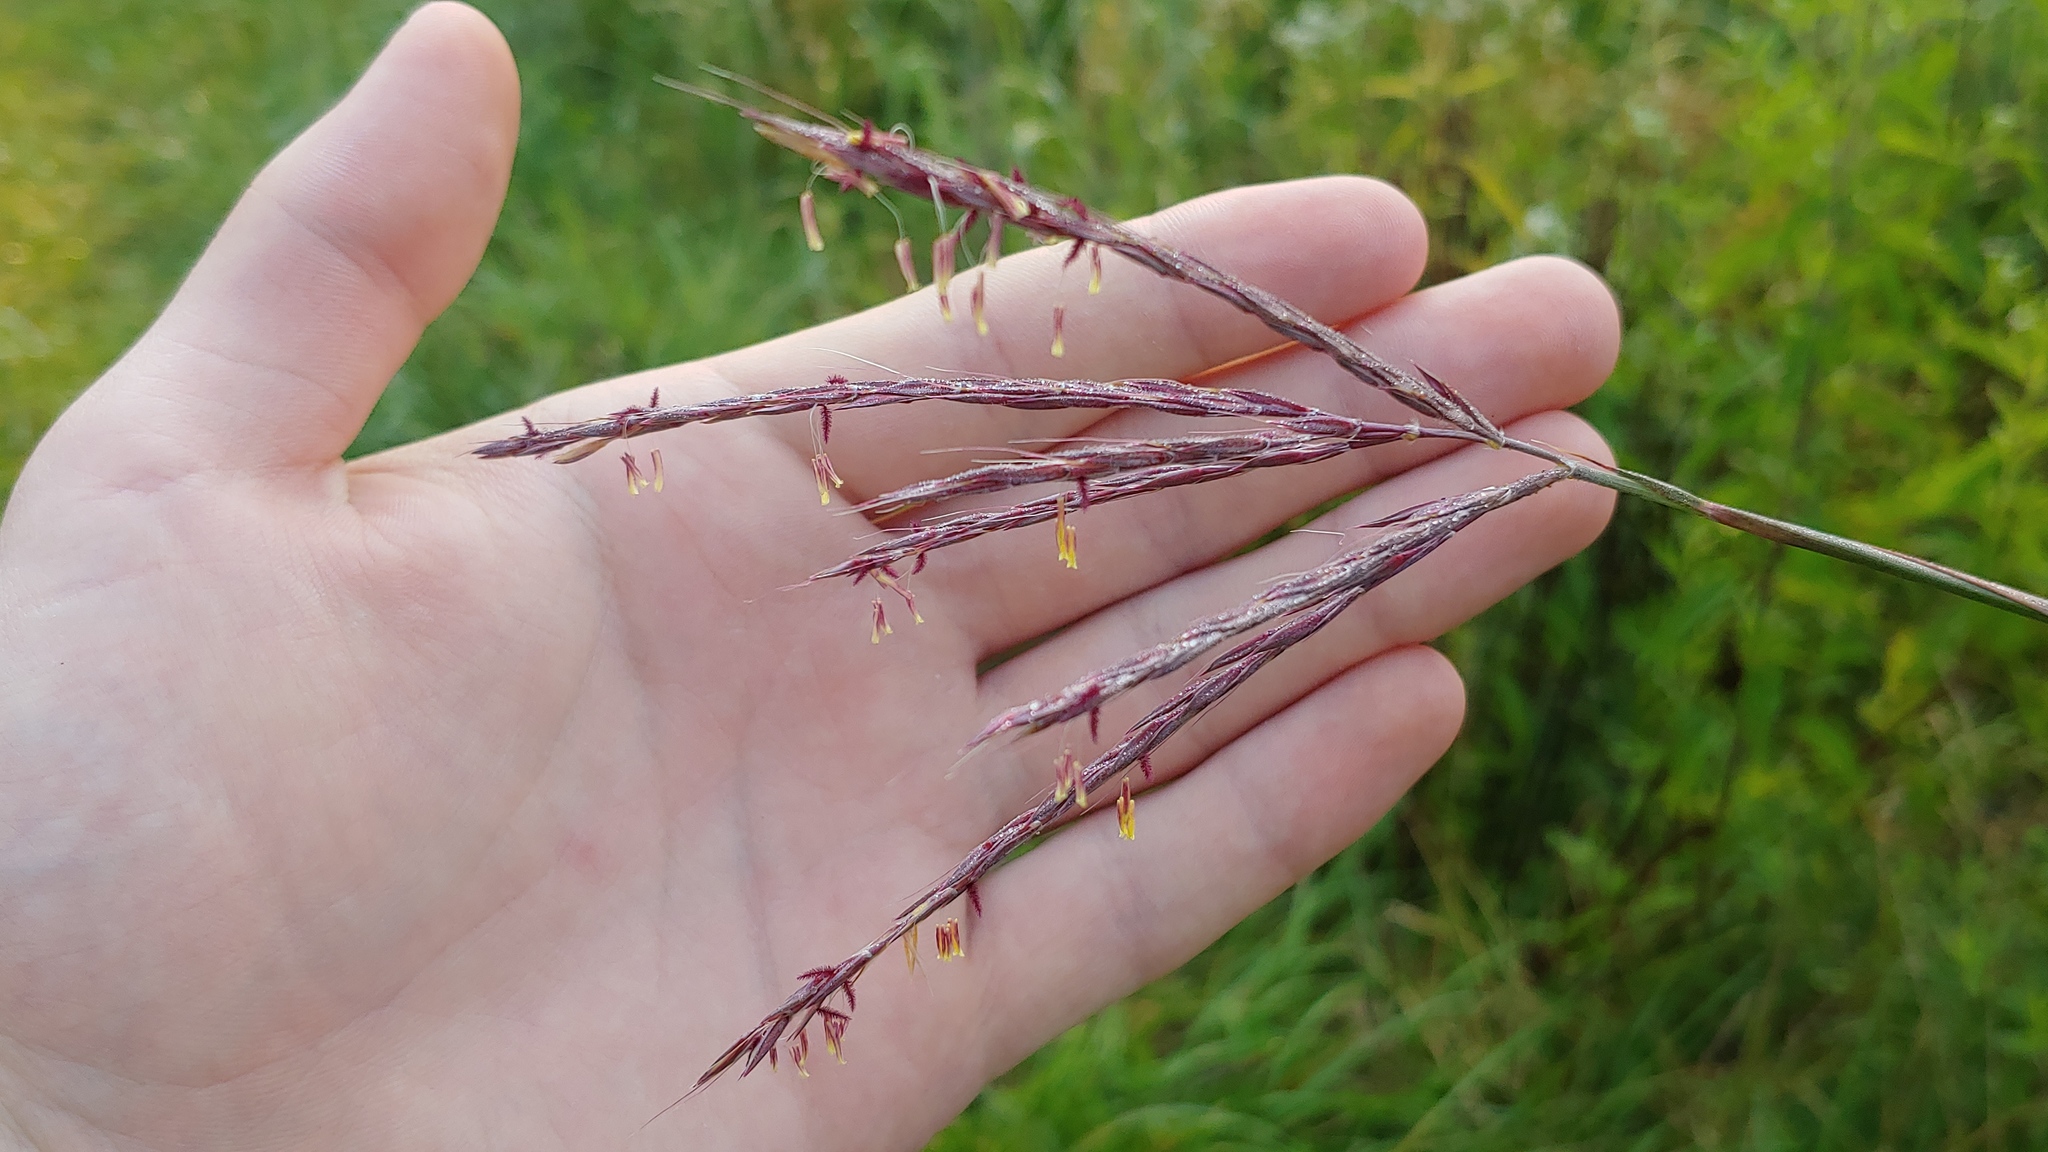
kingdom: Plantae
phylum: Tracheophyta
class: Liliopsida
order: Poales
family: Poaceae
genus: Andropogon
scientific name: Andropogon gerardi
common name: Big bluestem
